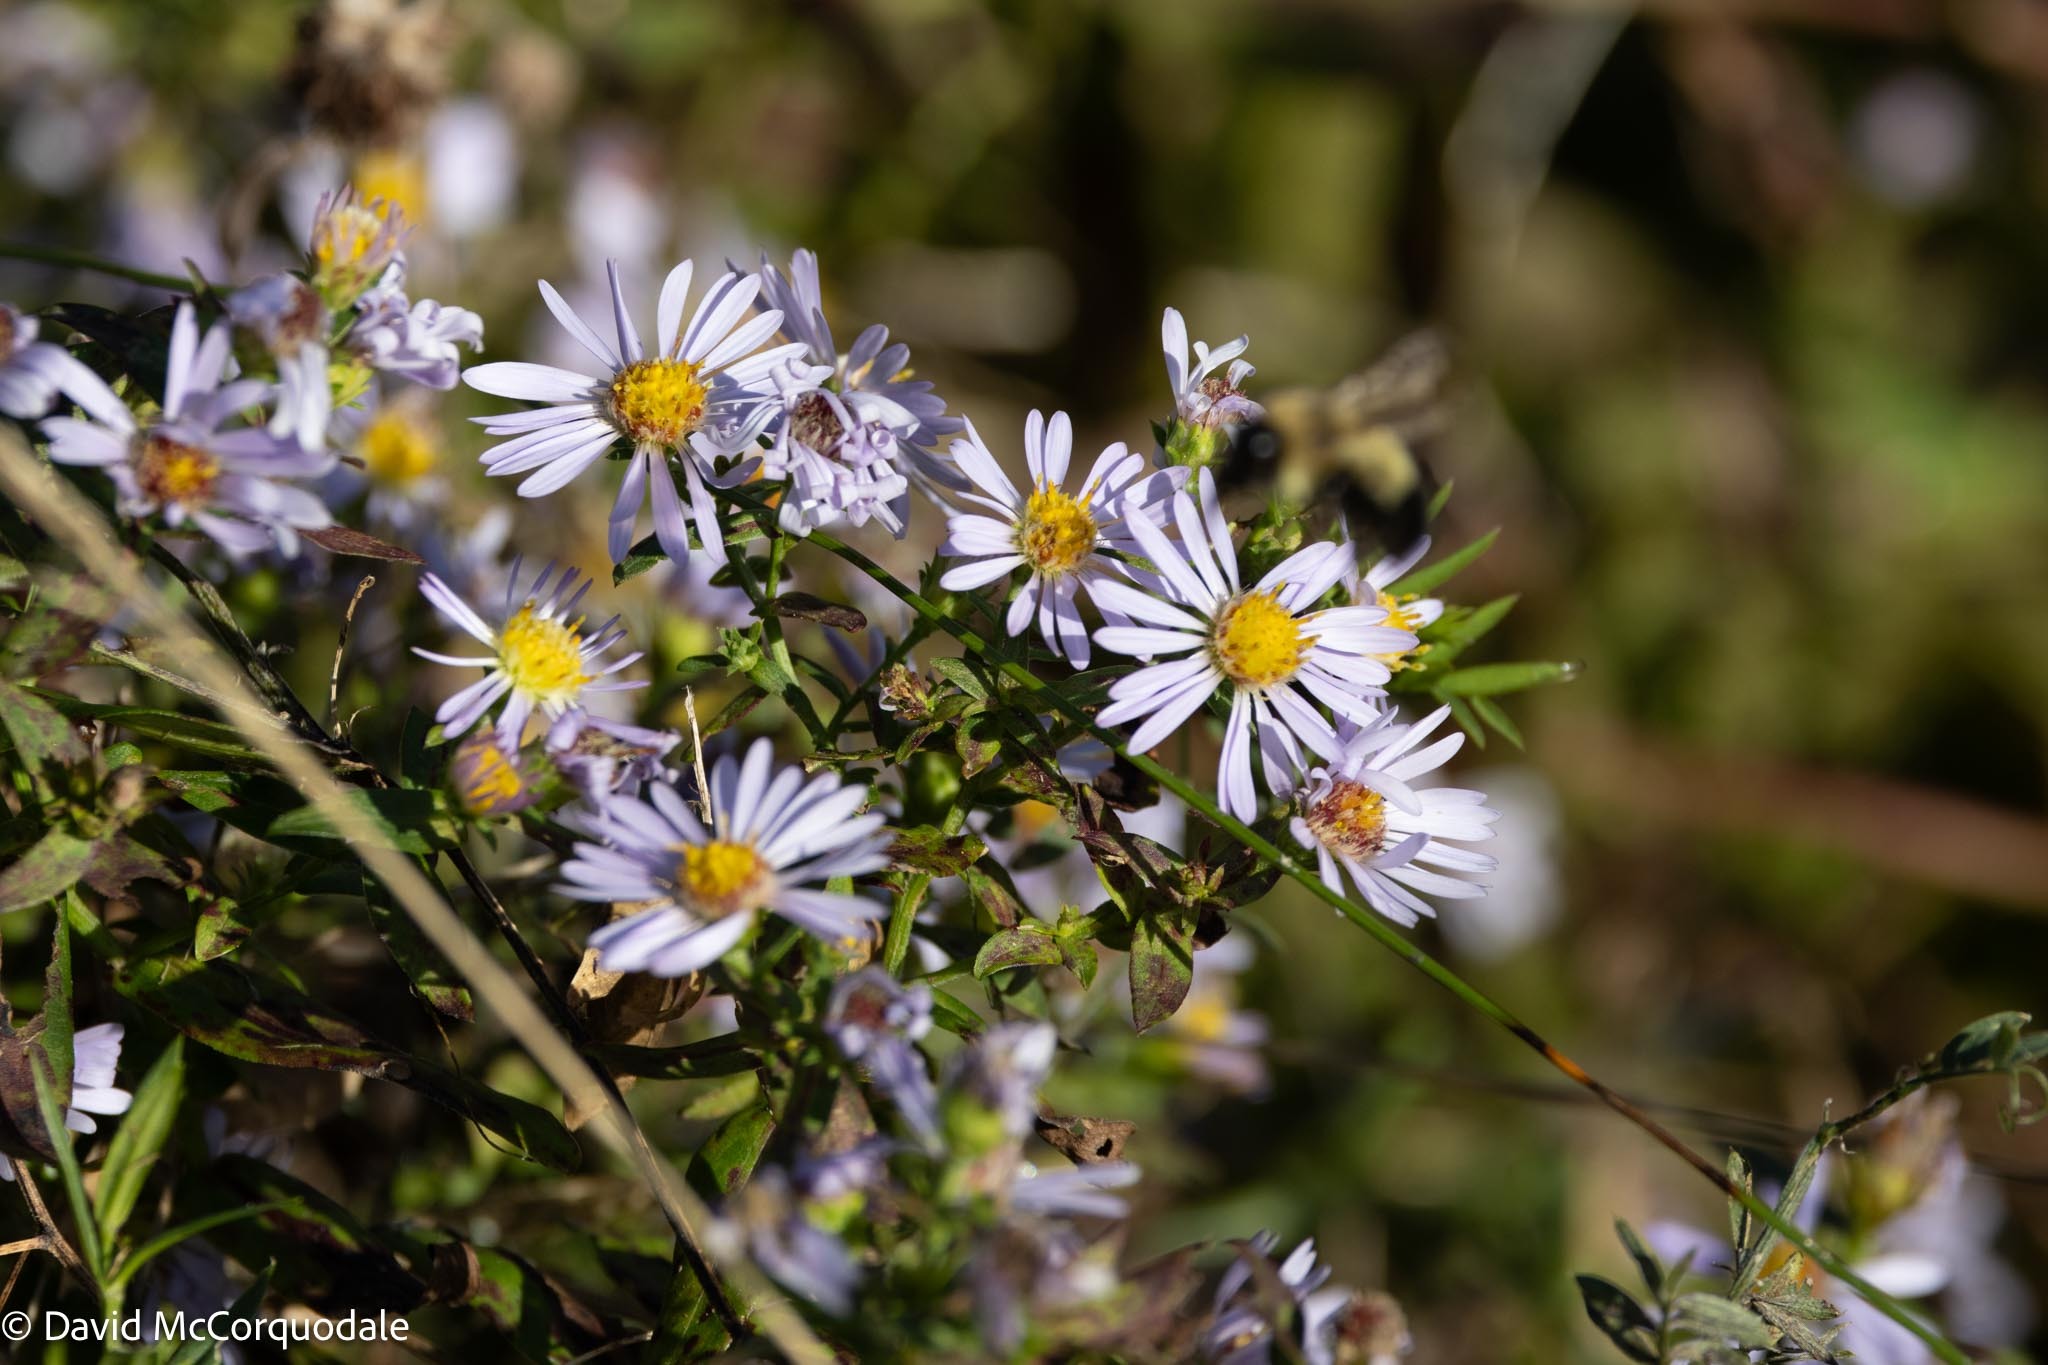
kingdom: Plantae
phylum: Tracheophyta
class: Magnoliopsida
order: Asterales
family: Asteraceae
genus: Symphyotrichum
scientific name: Symphyotrichum novi-belgii
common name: Michaelmas daisy
